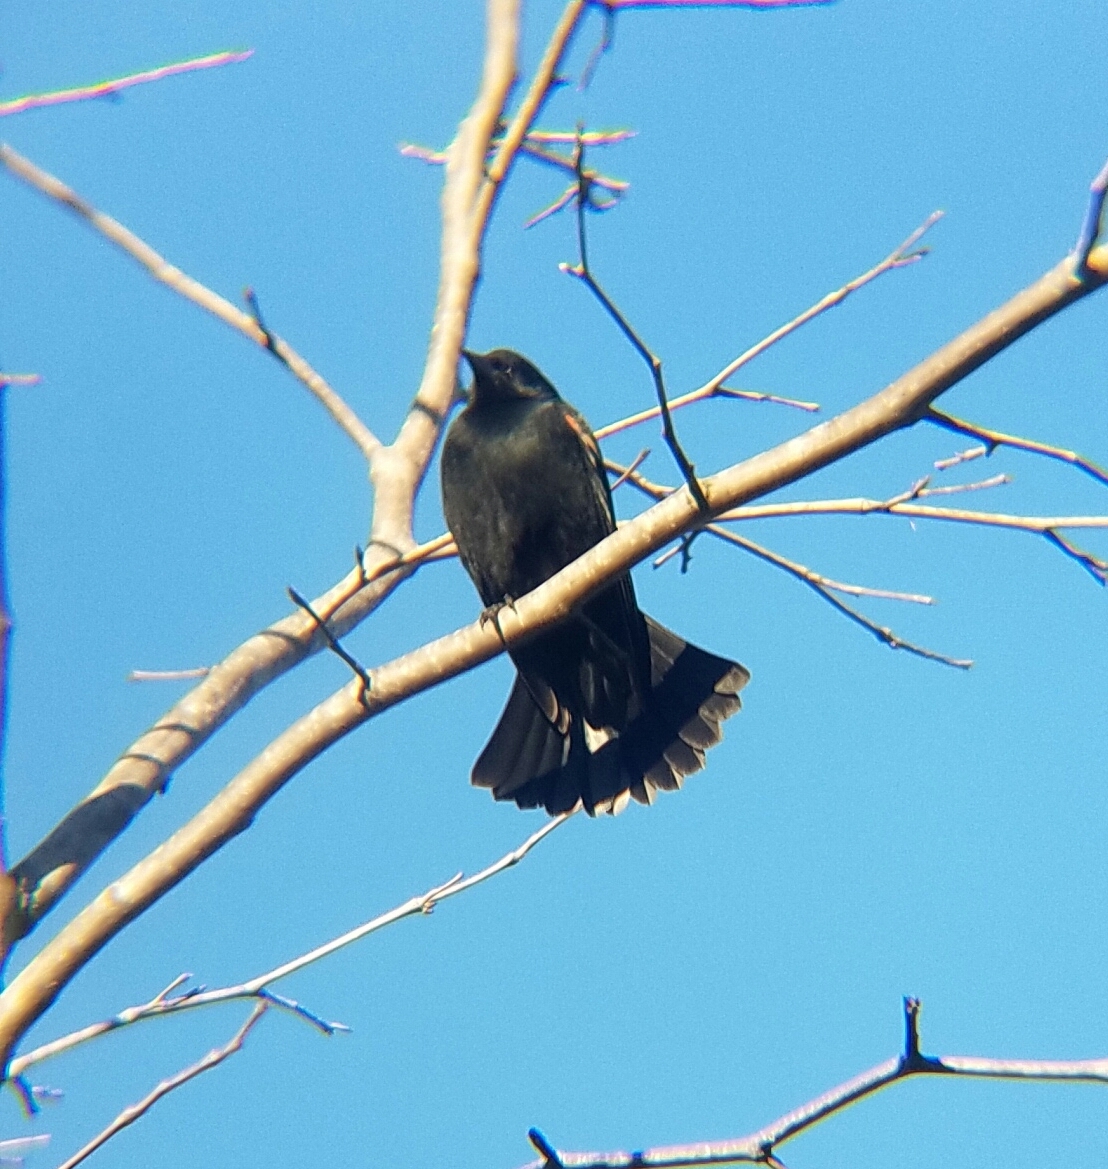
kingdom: Animalia
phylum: Chordata
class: Aves
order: Passeriformes
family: Icteridae
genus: Agelaius
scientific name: Agelaius phoeniceus
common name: Red-winged blackbird
